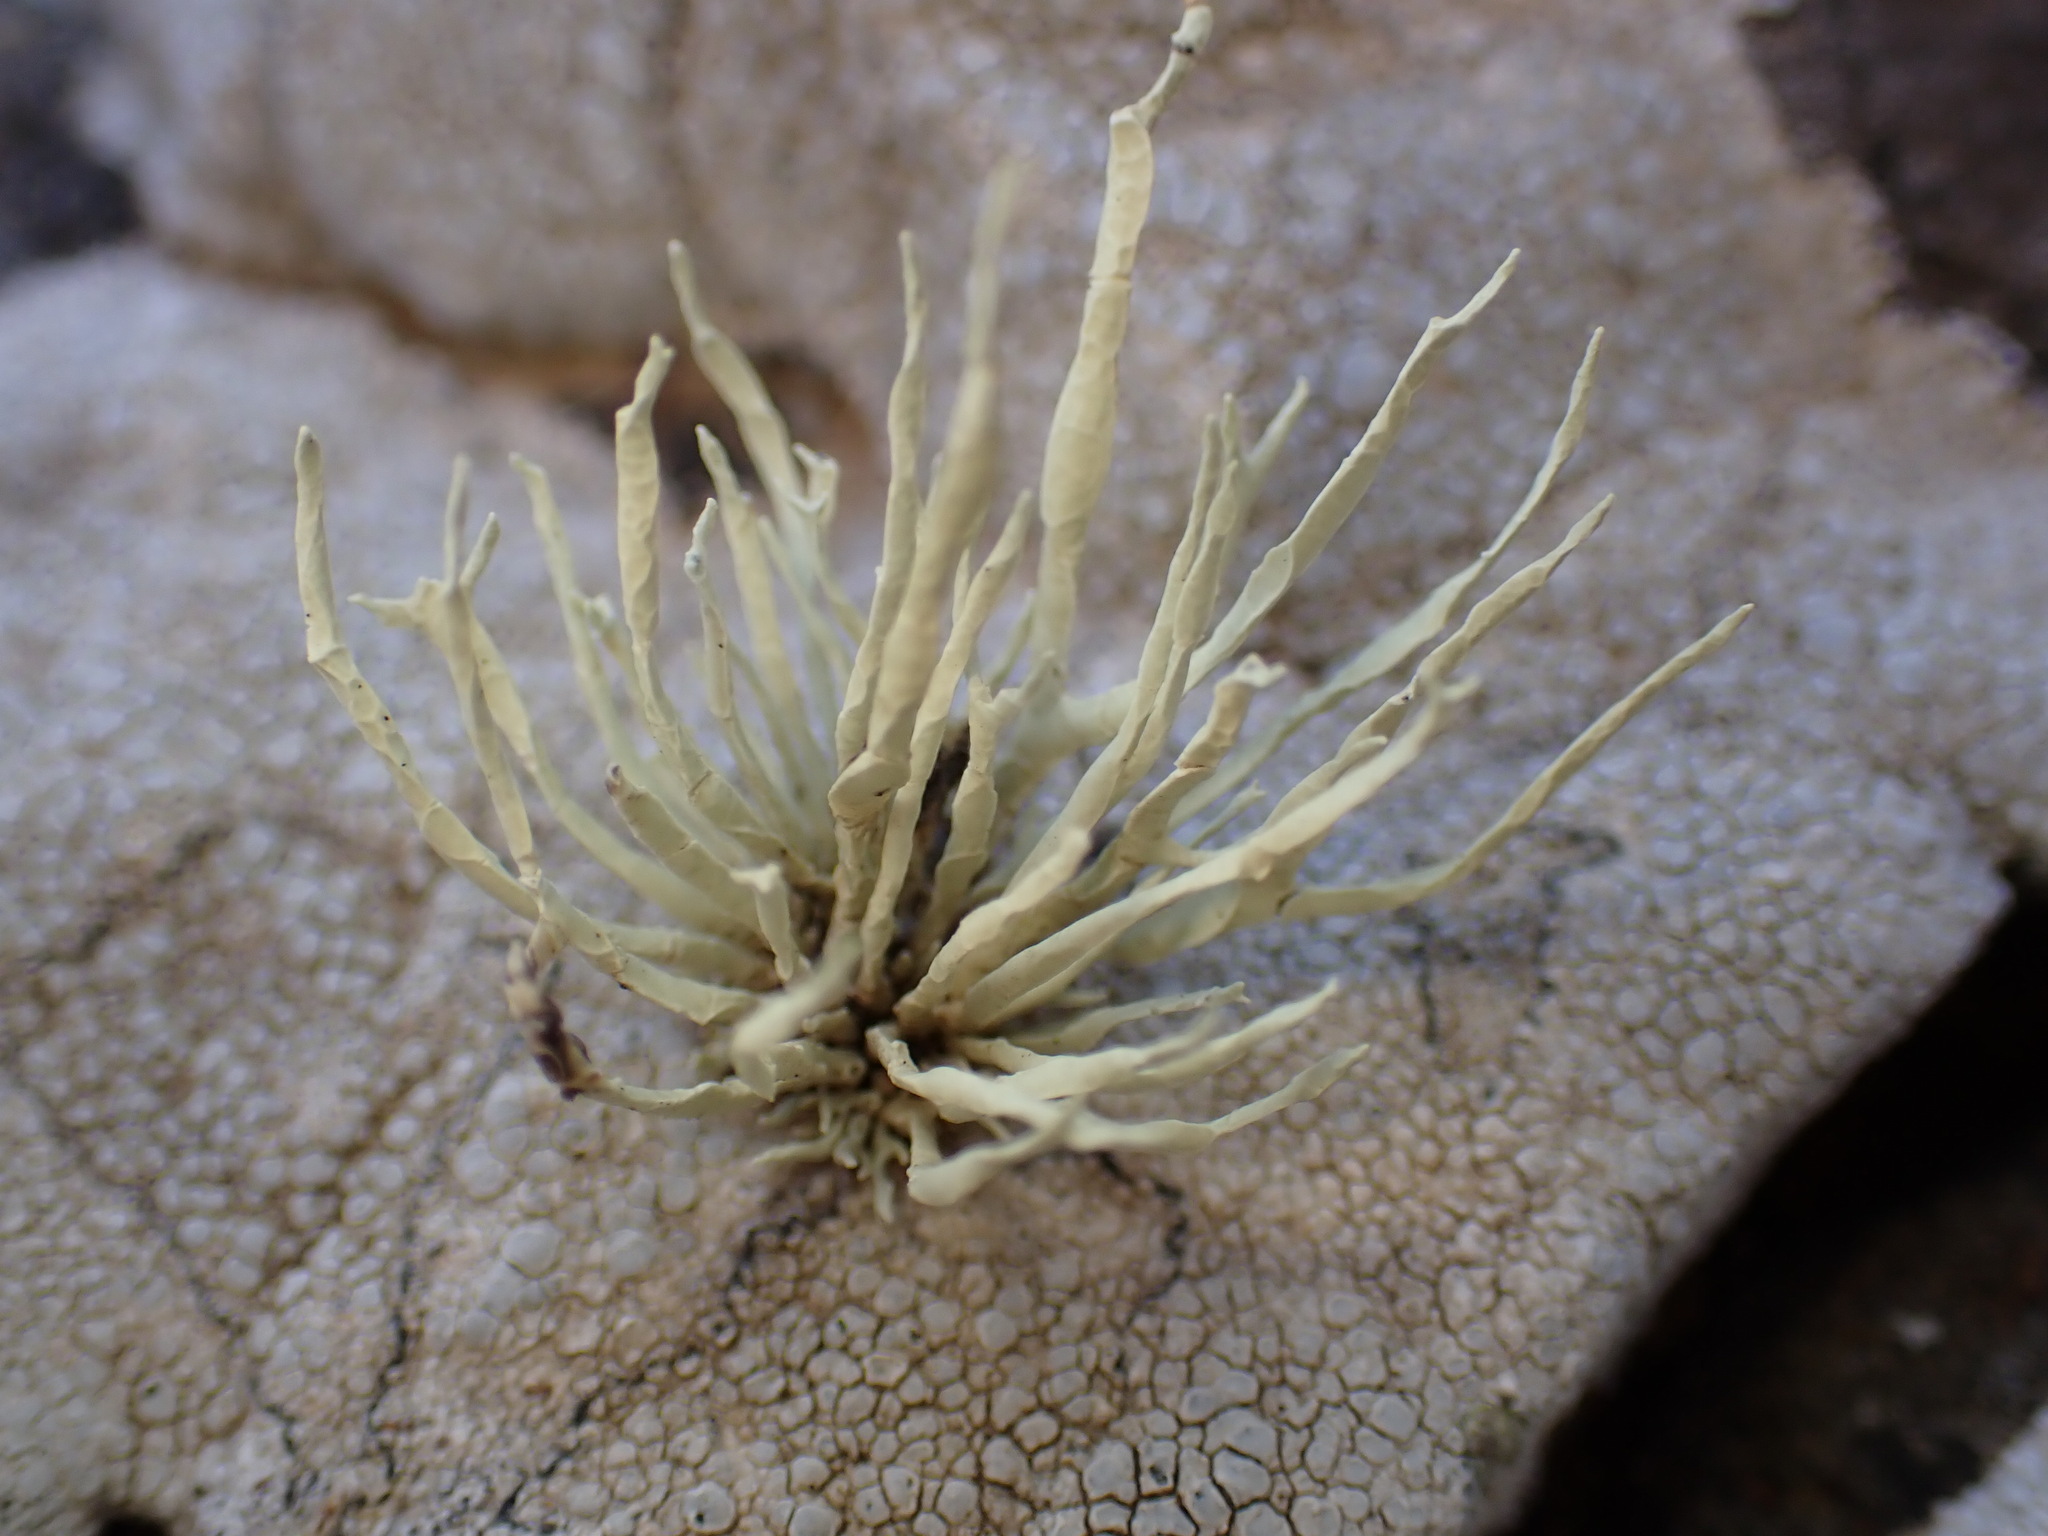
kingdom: Fungi
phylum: Ascomycota
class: Lecanoromycetes
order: Lecanorales
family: Ramalinaceae
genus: Niebla
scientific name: Niebla homalea
